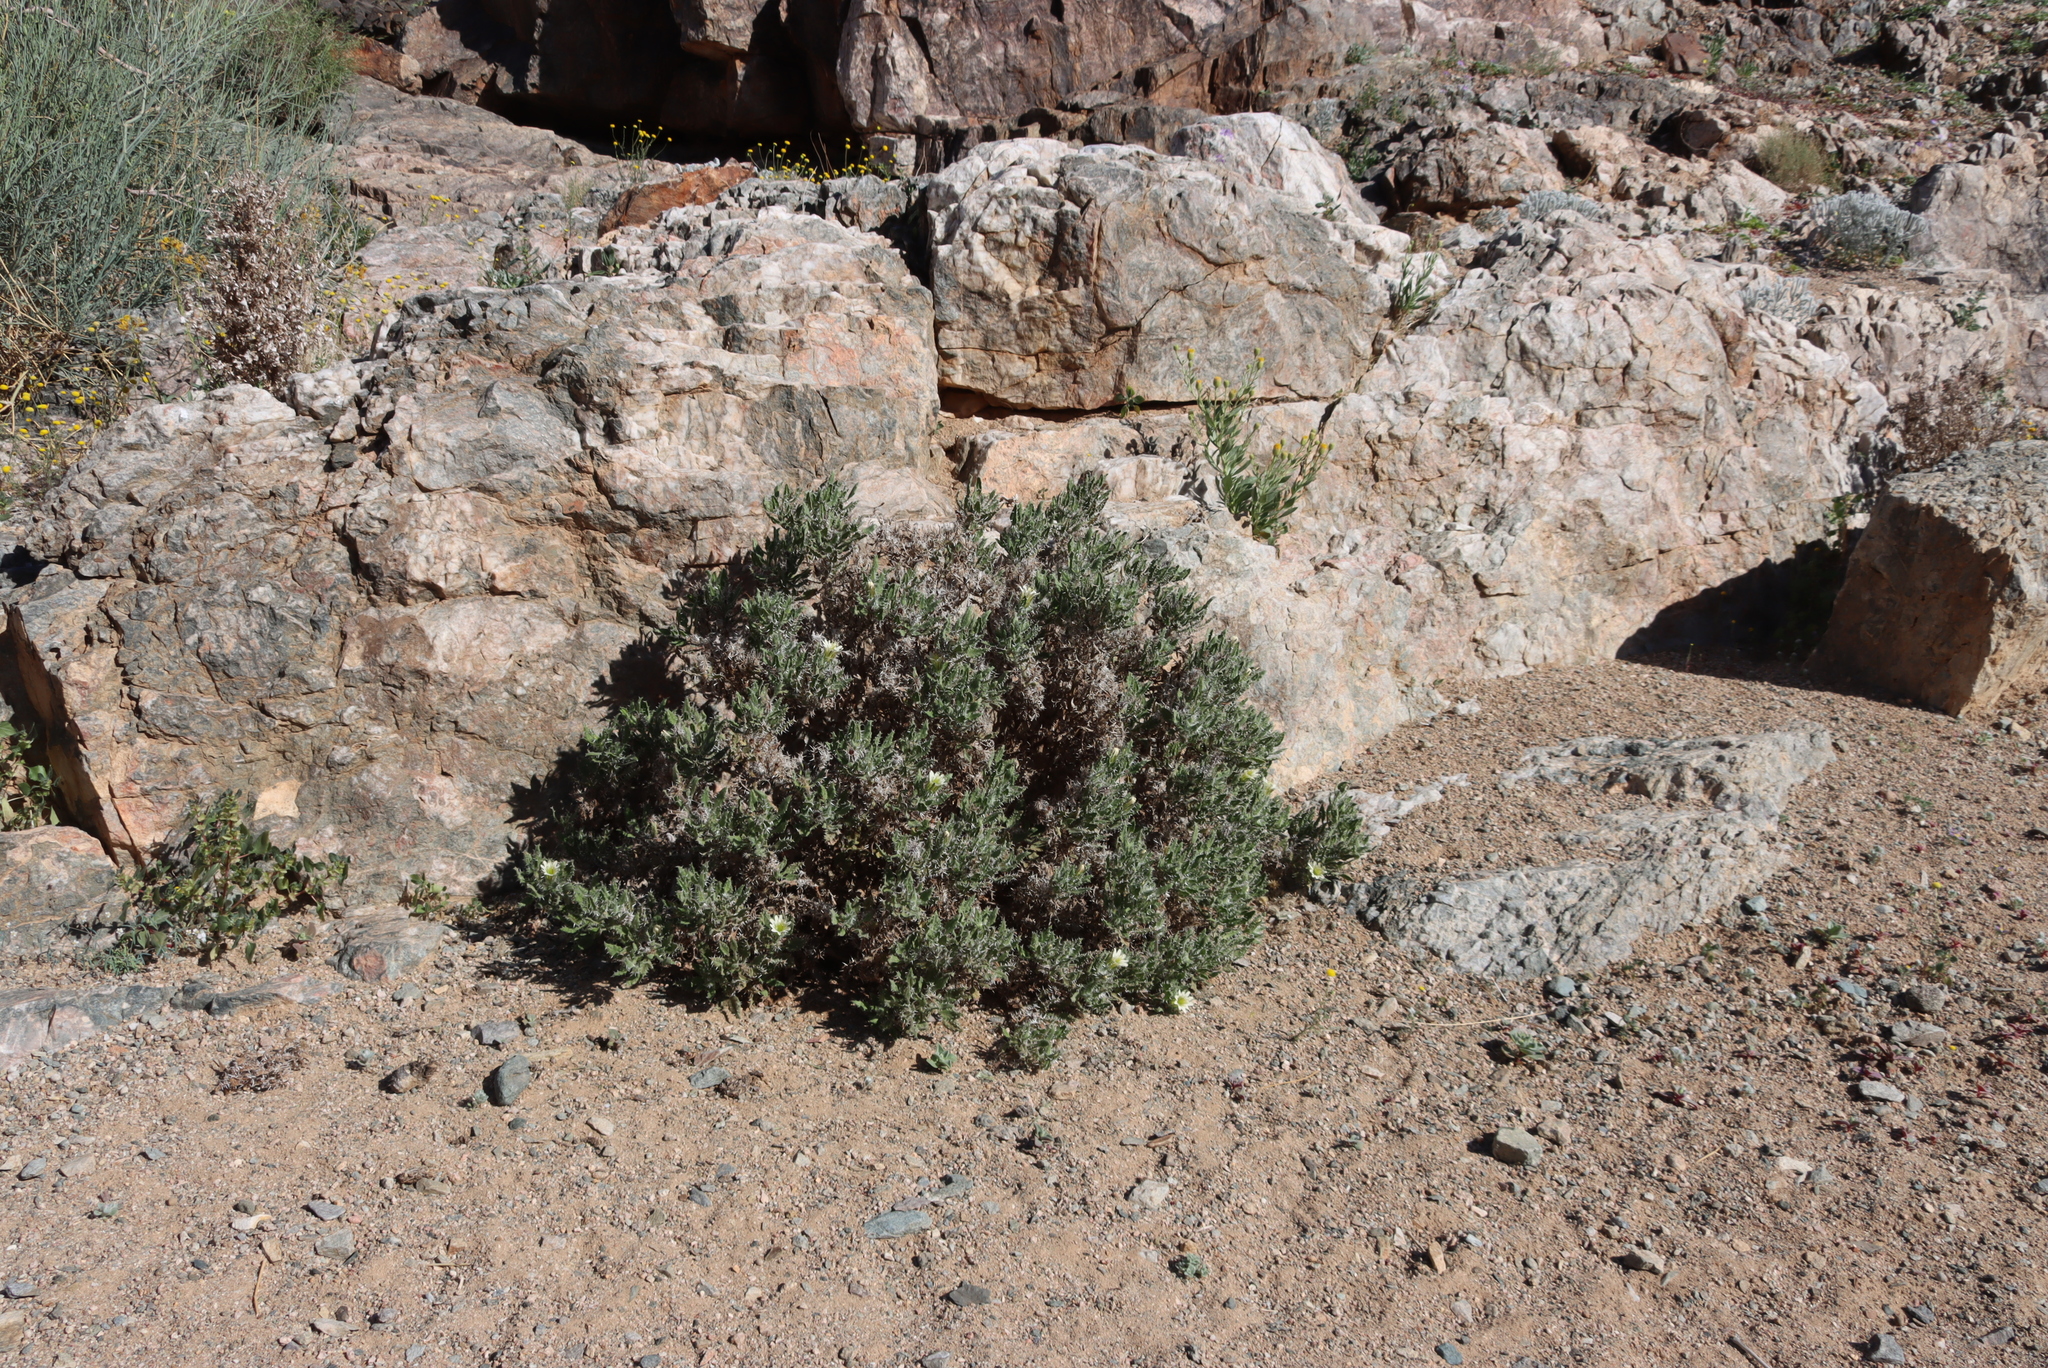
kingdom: Plantae
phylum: Tracheophyta
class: Magnoliopsida
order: Boraginales
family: Boraginaceae
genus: Codon
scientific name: Codon royenii
